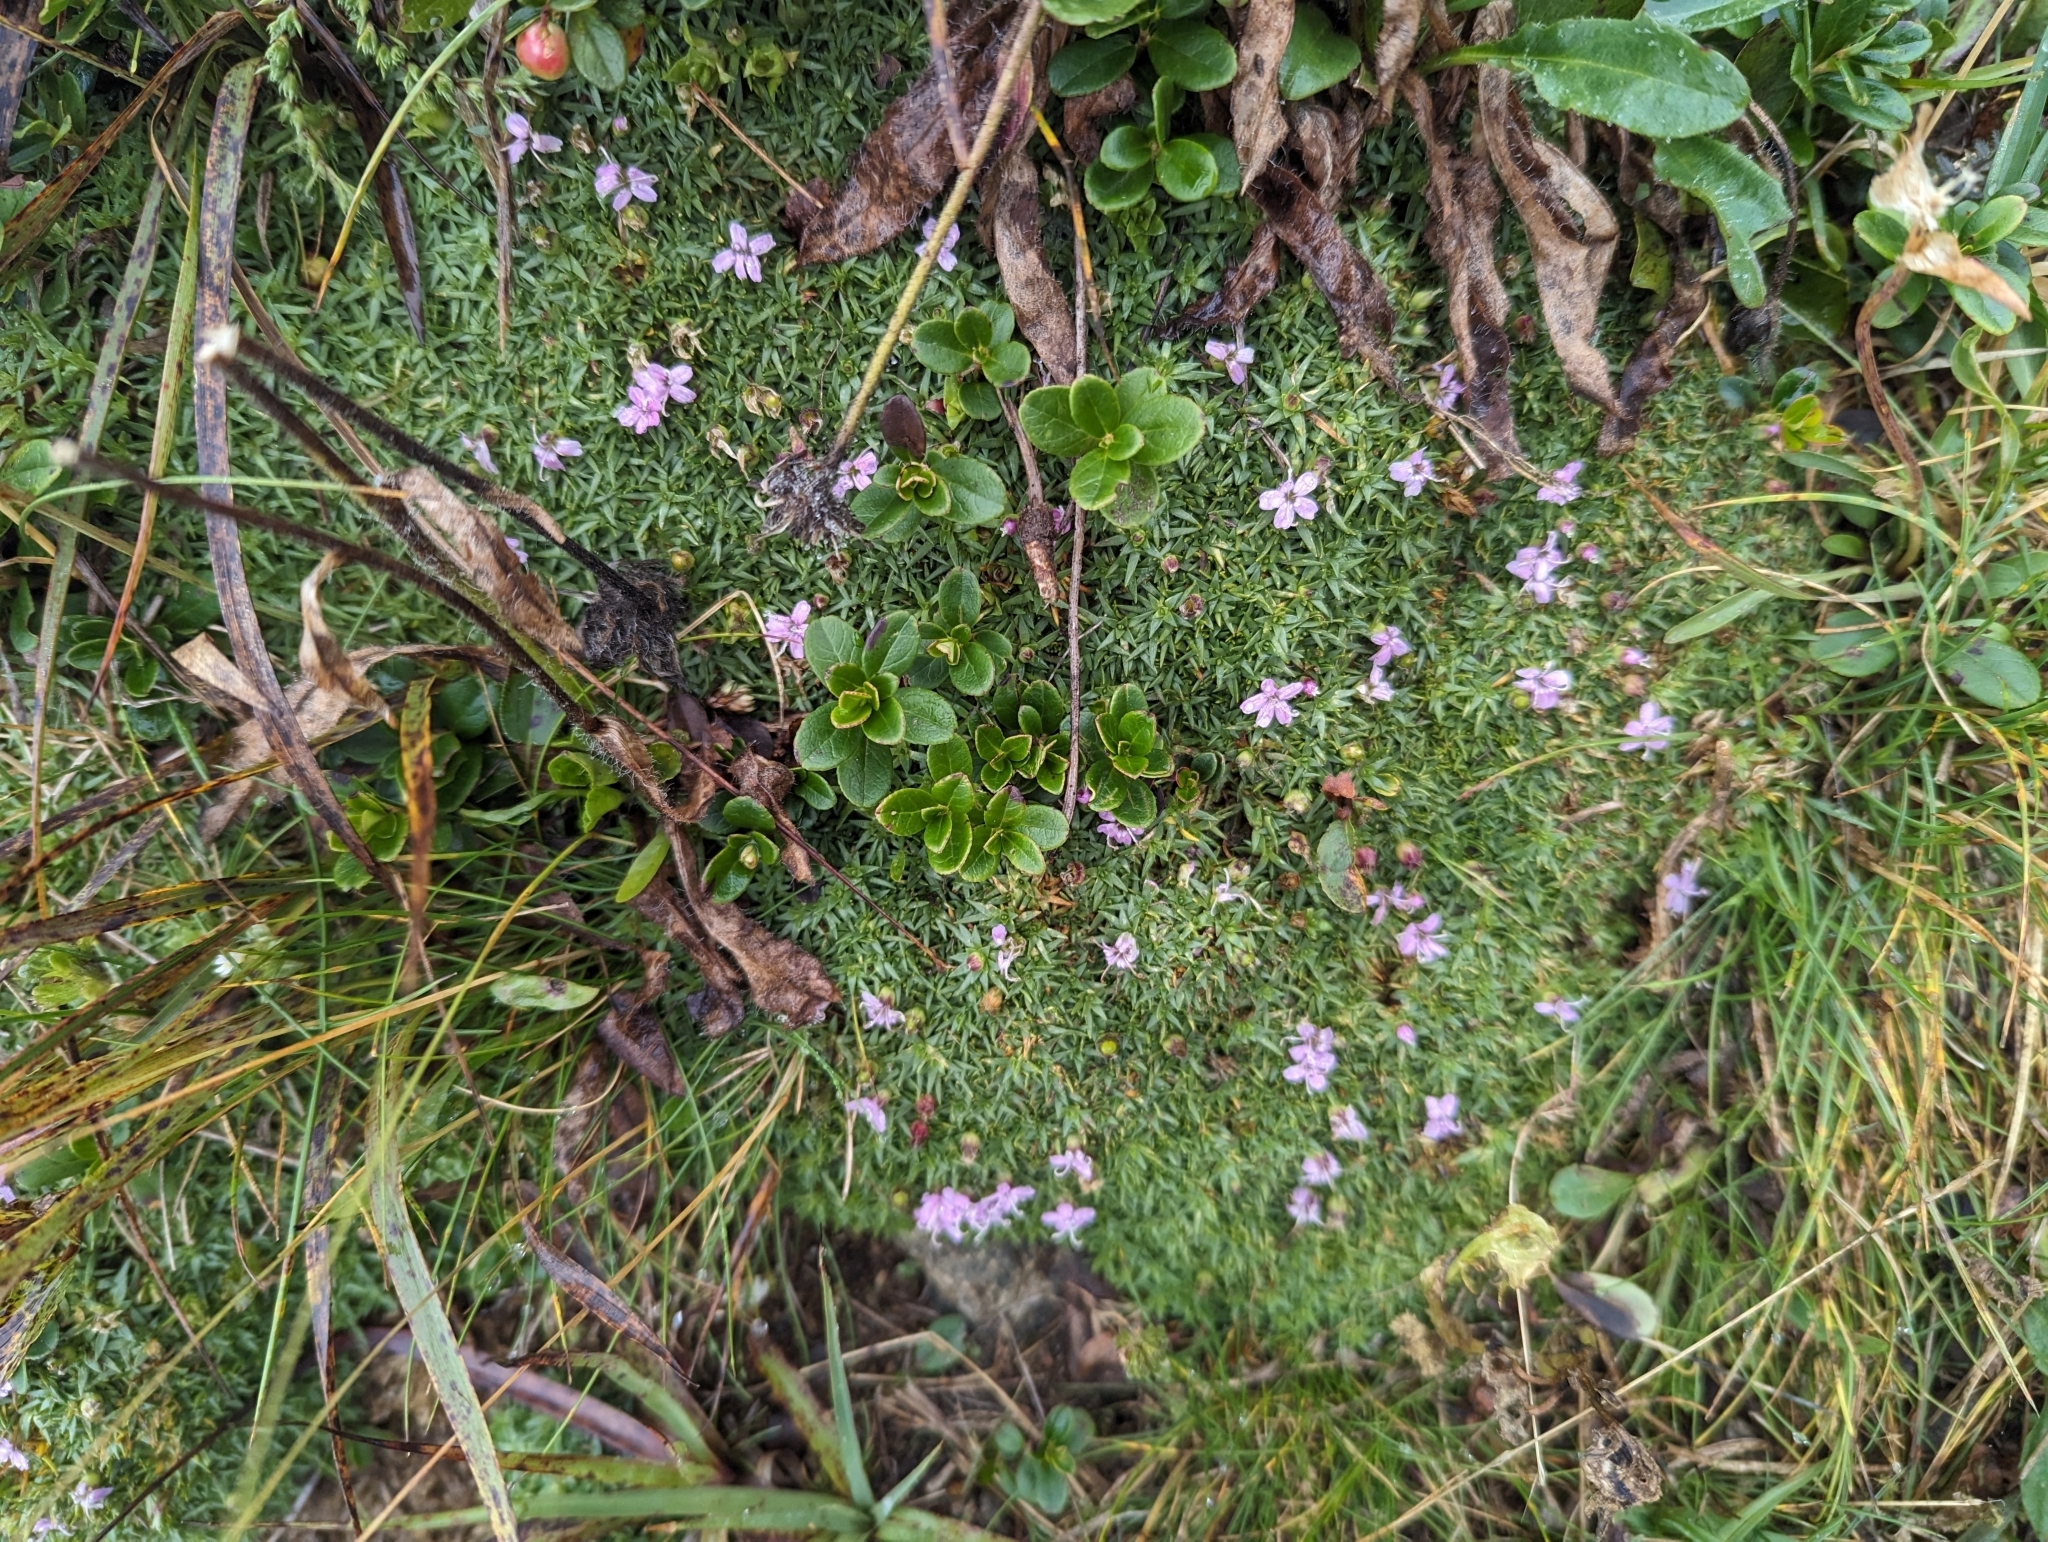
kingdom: Plantae
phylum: Tracheophyta
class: Magnoliopsida
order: Caryophyllales
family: Caryophyllaceae
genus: Silene
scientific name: Silene acaulis
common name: Moss campion
